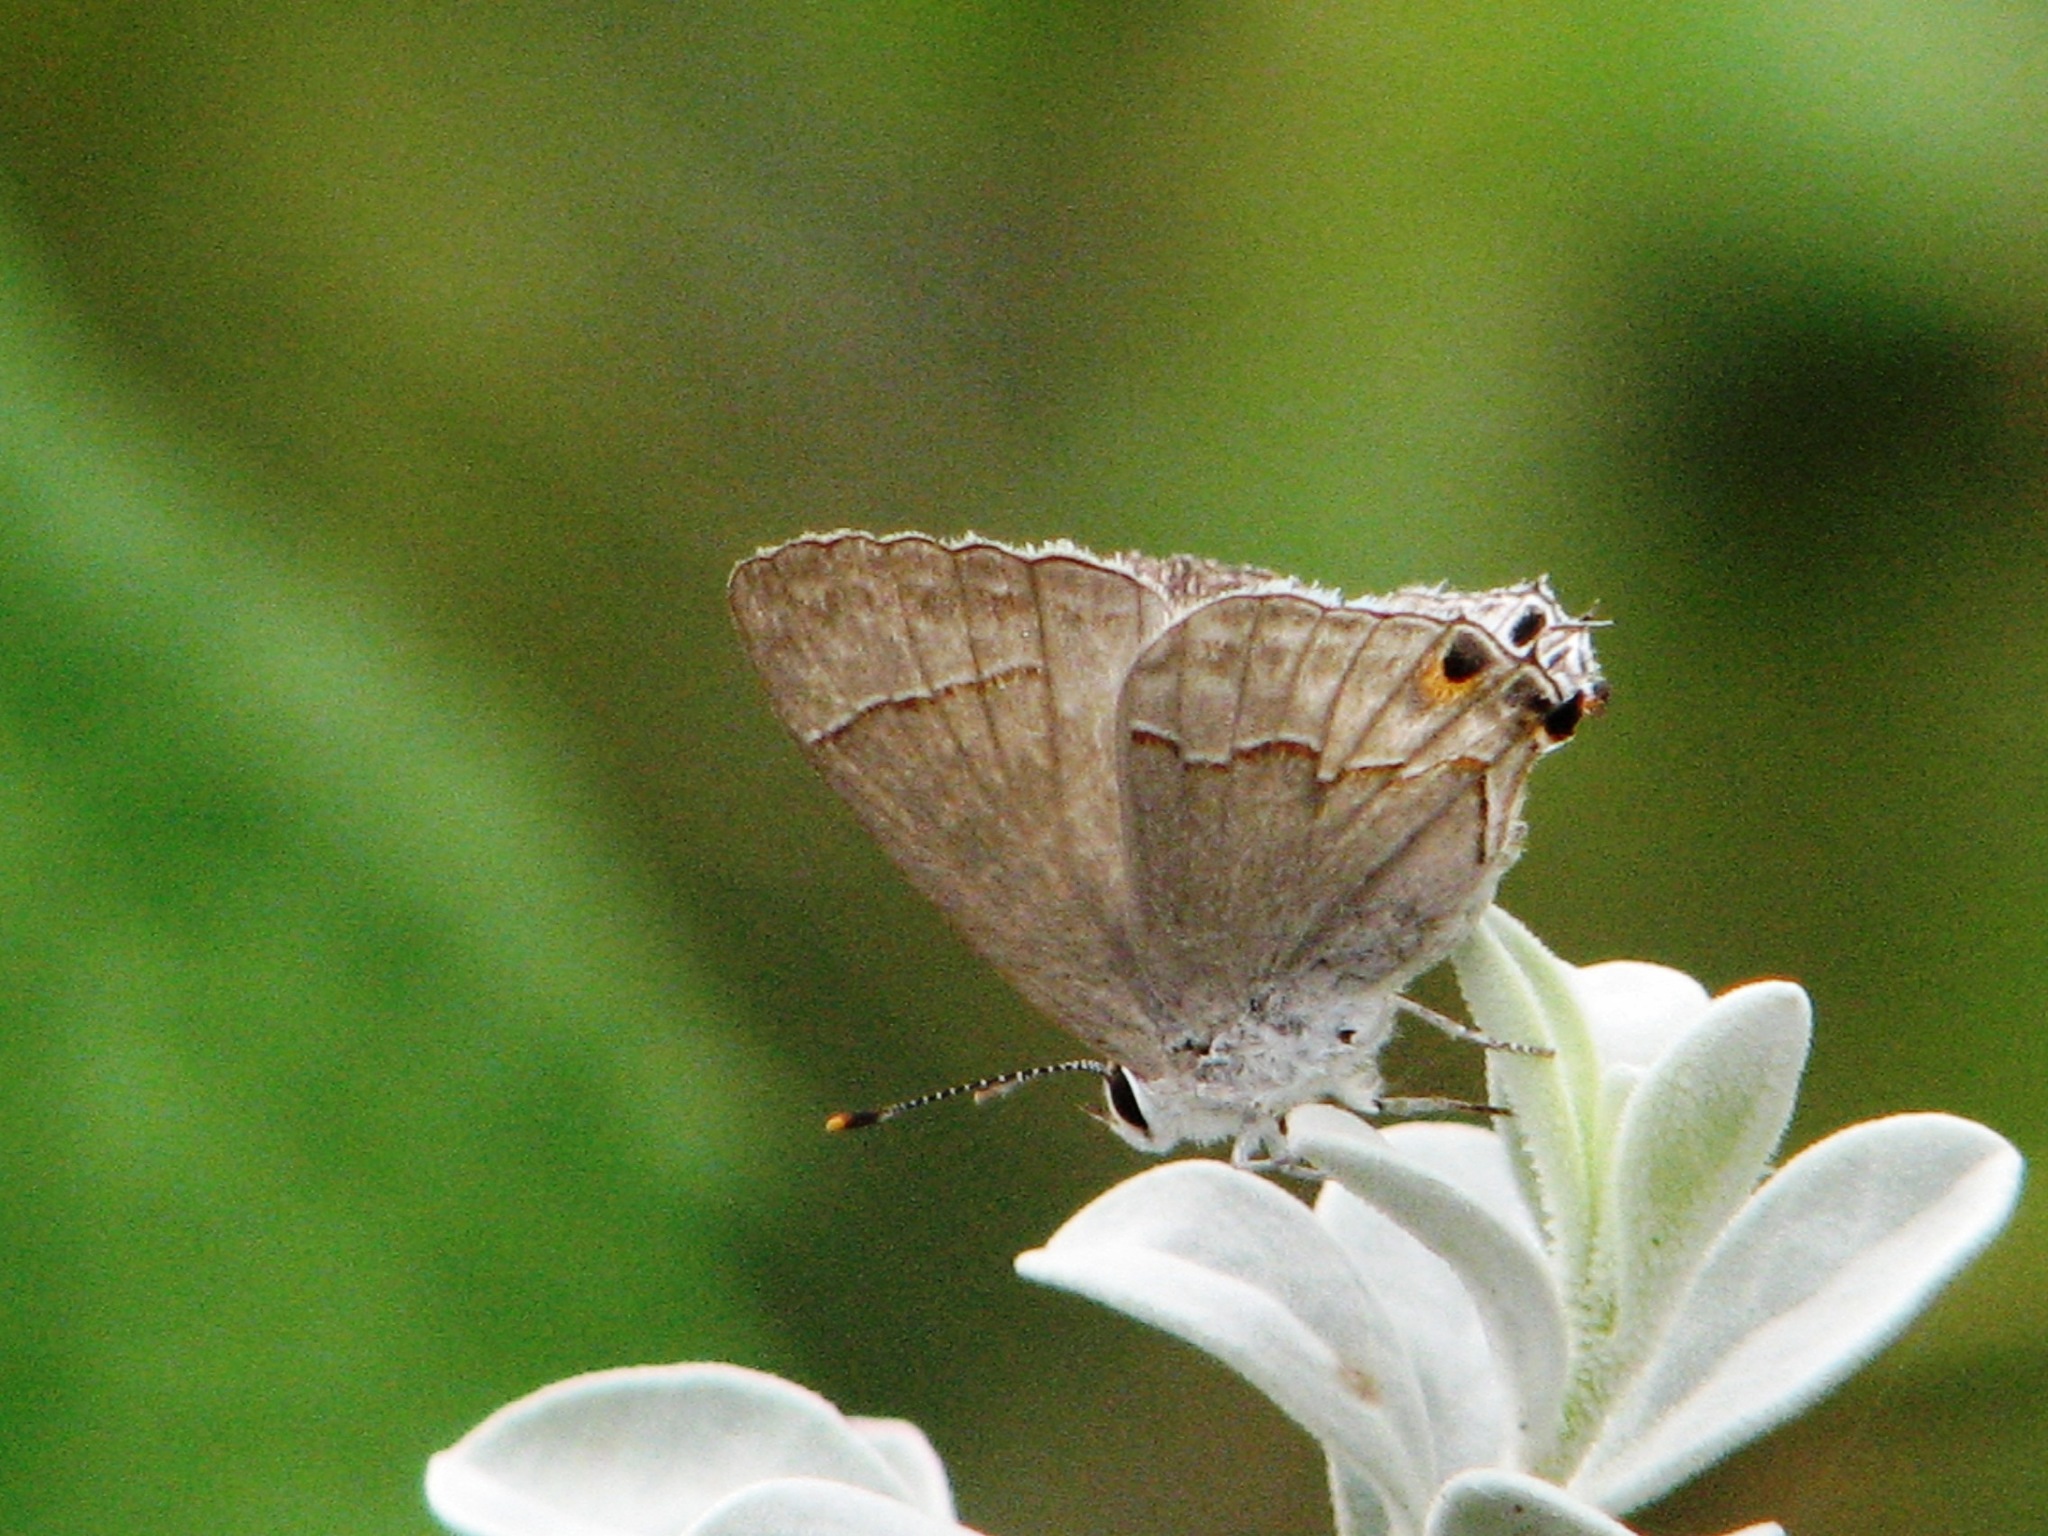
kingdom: Animalia
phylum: Arthropoda
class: Insecta
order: Lepidoptera
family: Lycaenidae
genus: Thecla
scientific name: Thecla bebrycia
